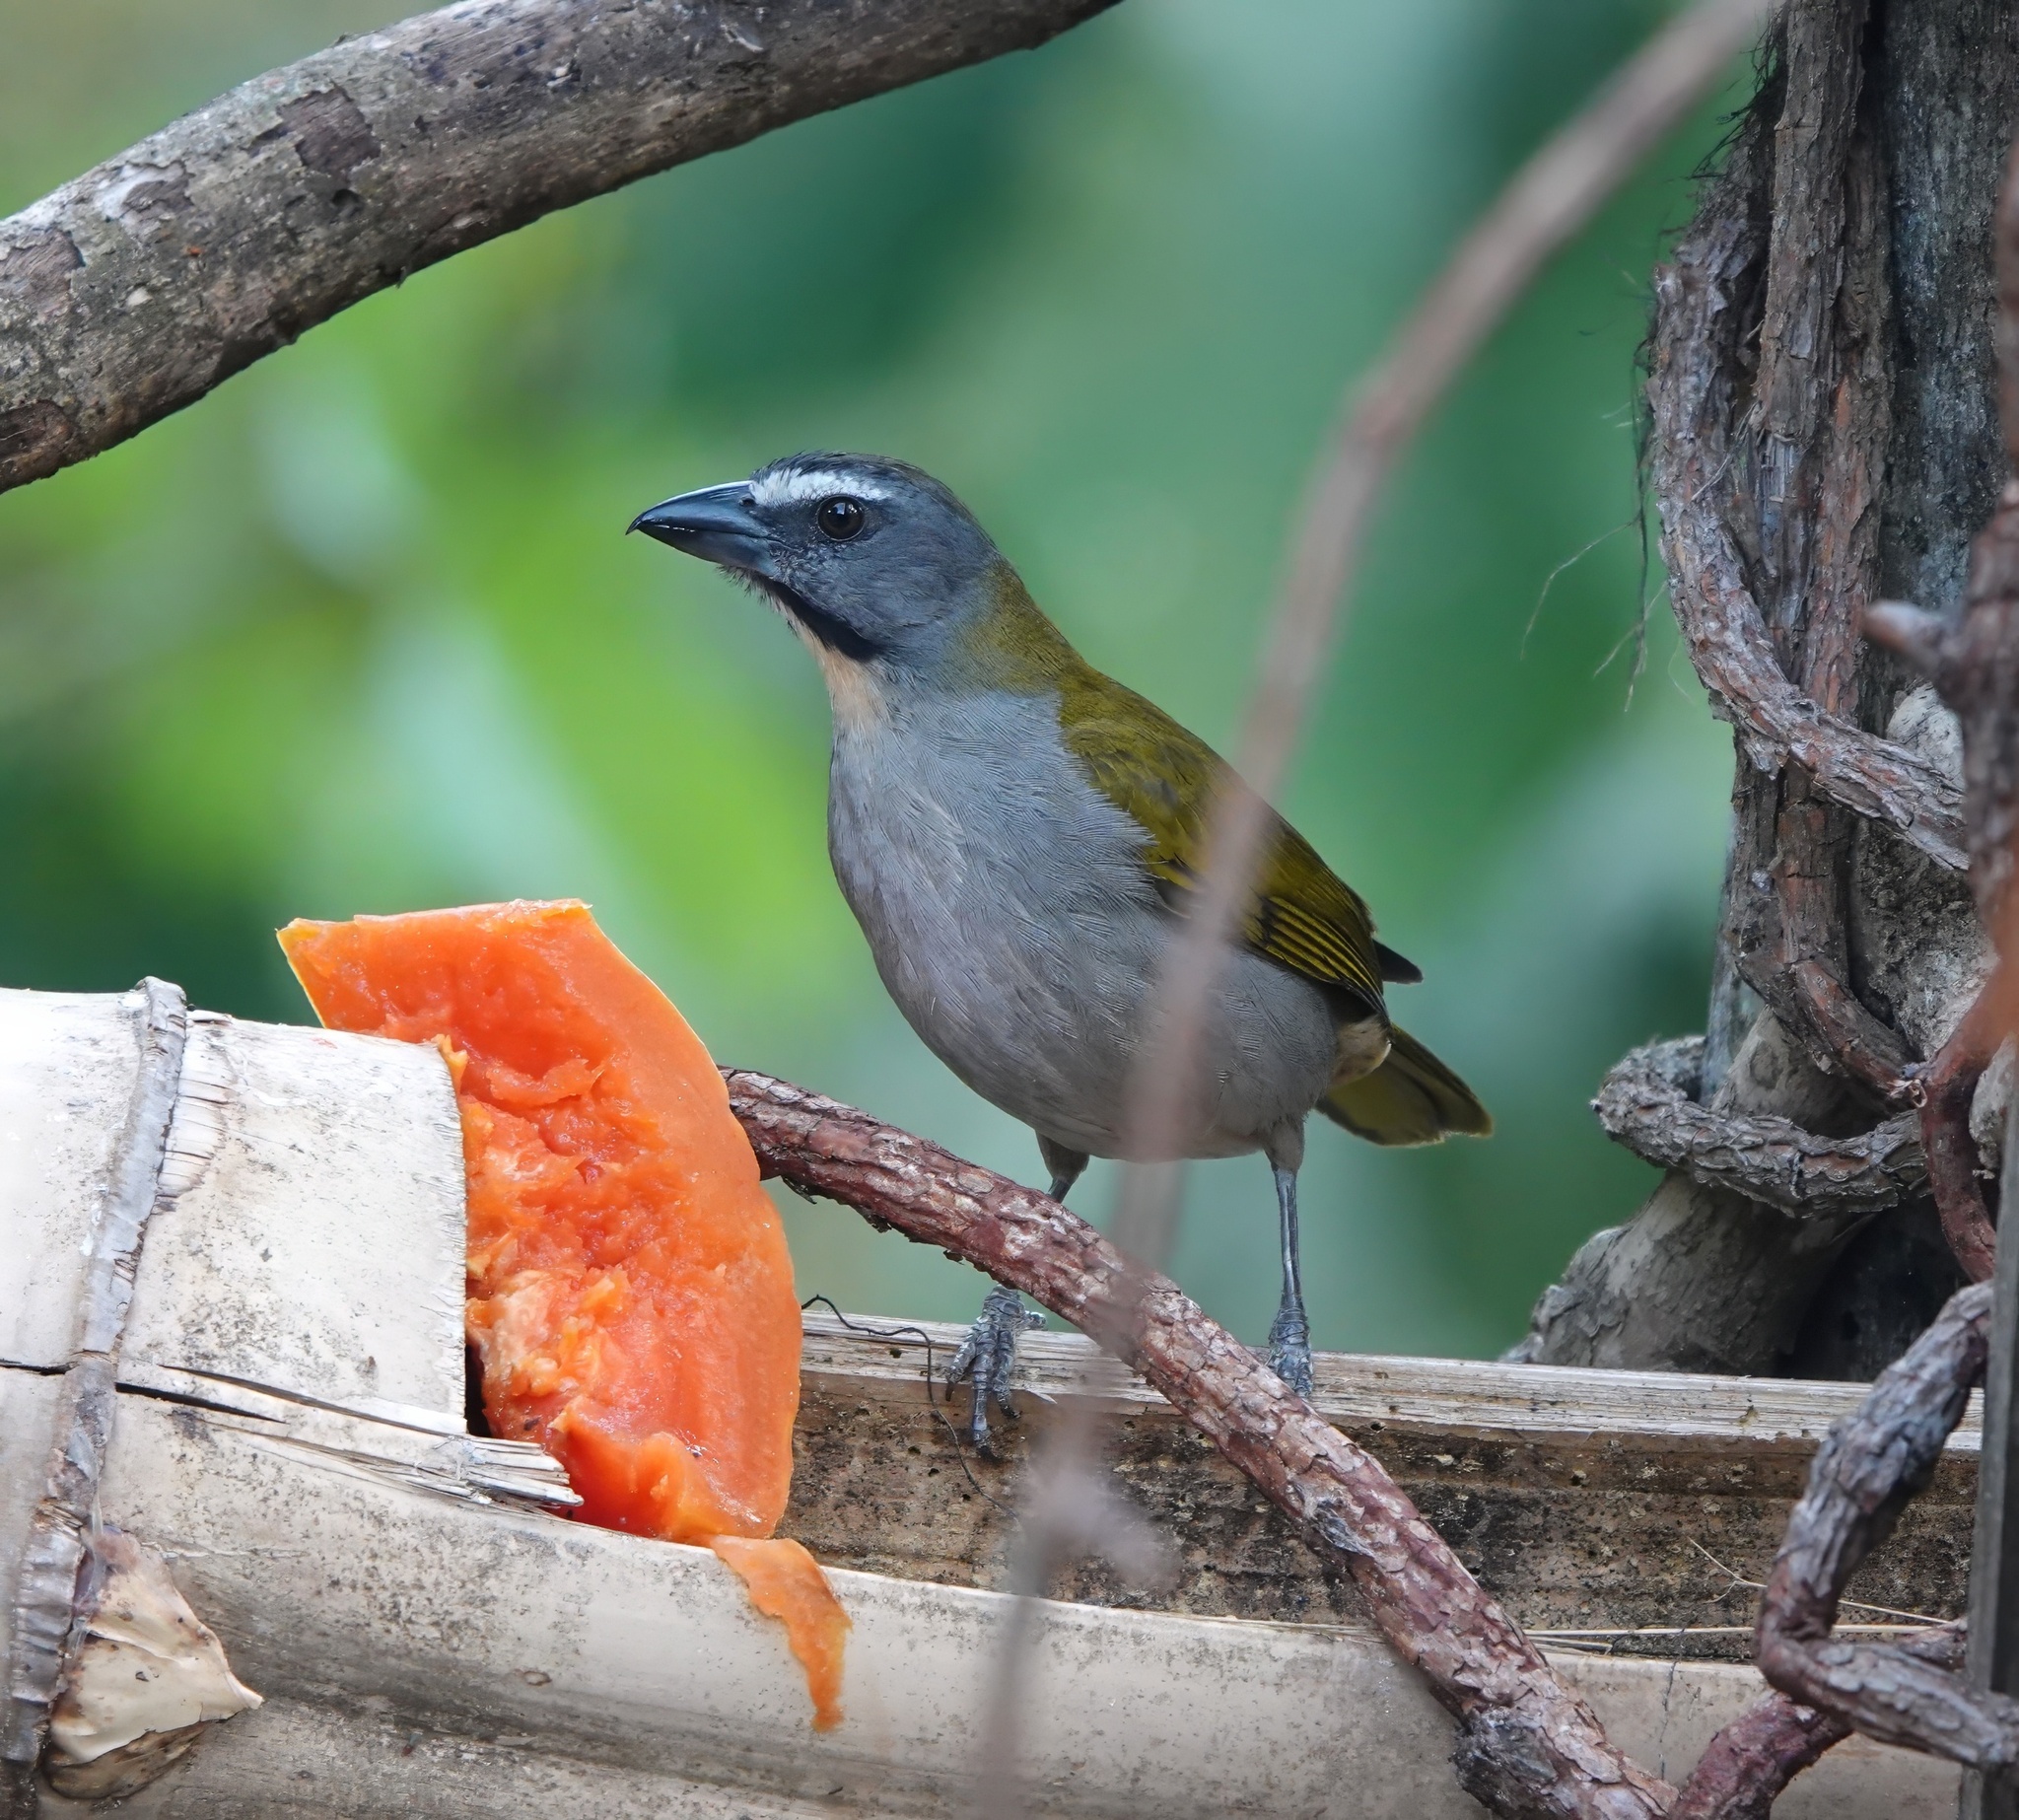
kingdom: Animalia
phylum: Chordata
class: Aves
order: Passeriformes
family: Thraupidae
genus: Saltator
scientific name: Saltator maximus
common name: Buff-throated saltator
